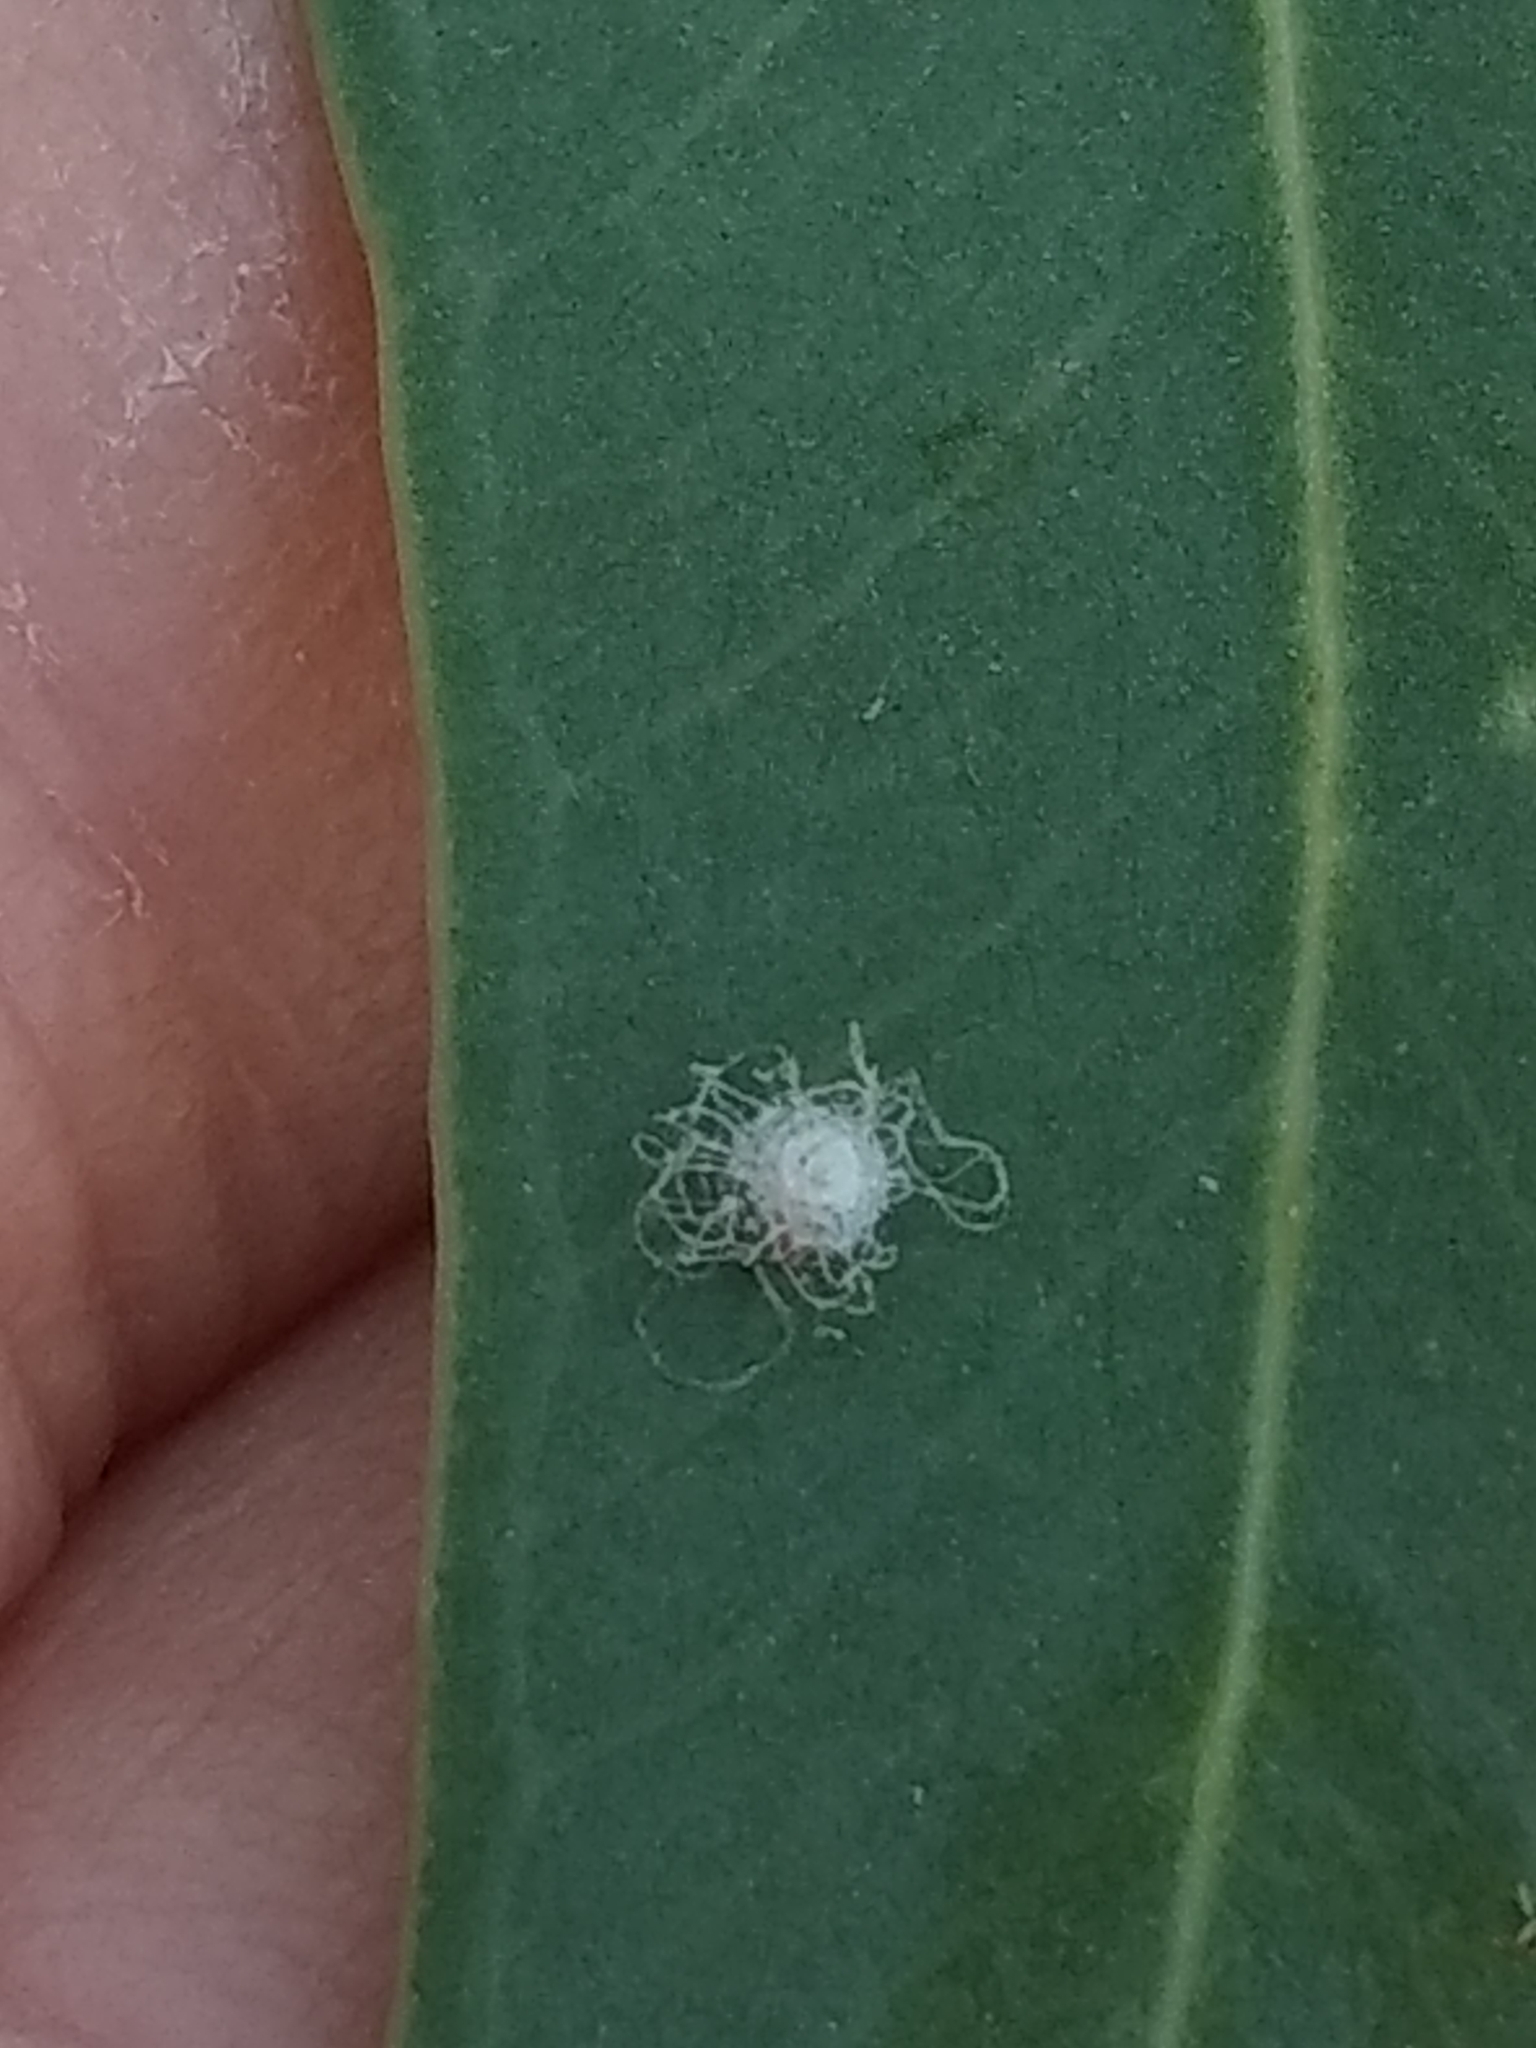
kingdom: Animalia
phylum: Arthropoda
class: Insecta
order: Hemiptera
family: Aphalaridae
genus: Glycaspis
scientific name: Glycaspis brimblecombei
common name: Red gum lerp psyllid
